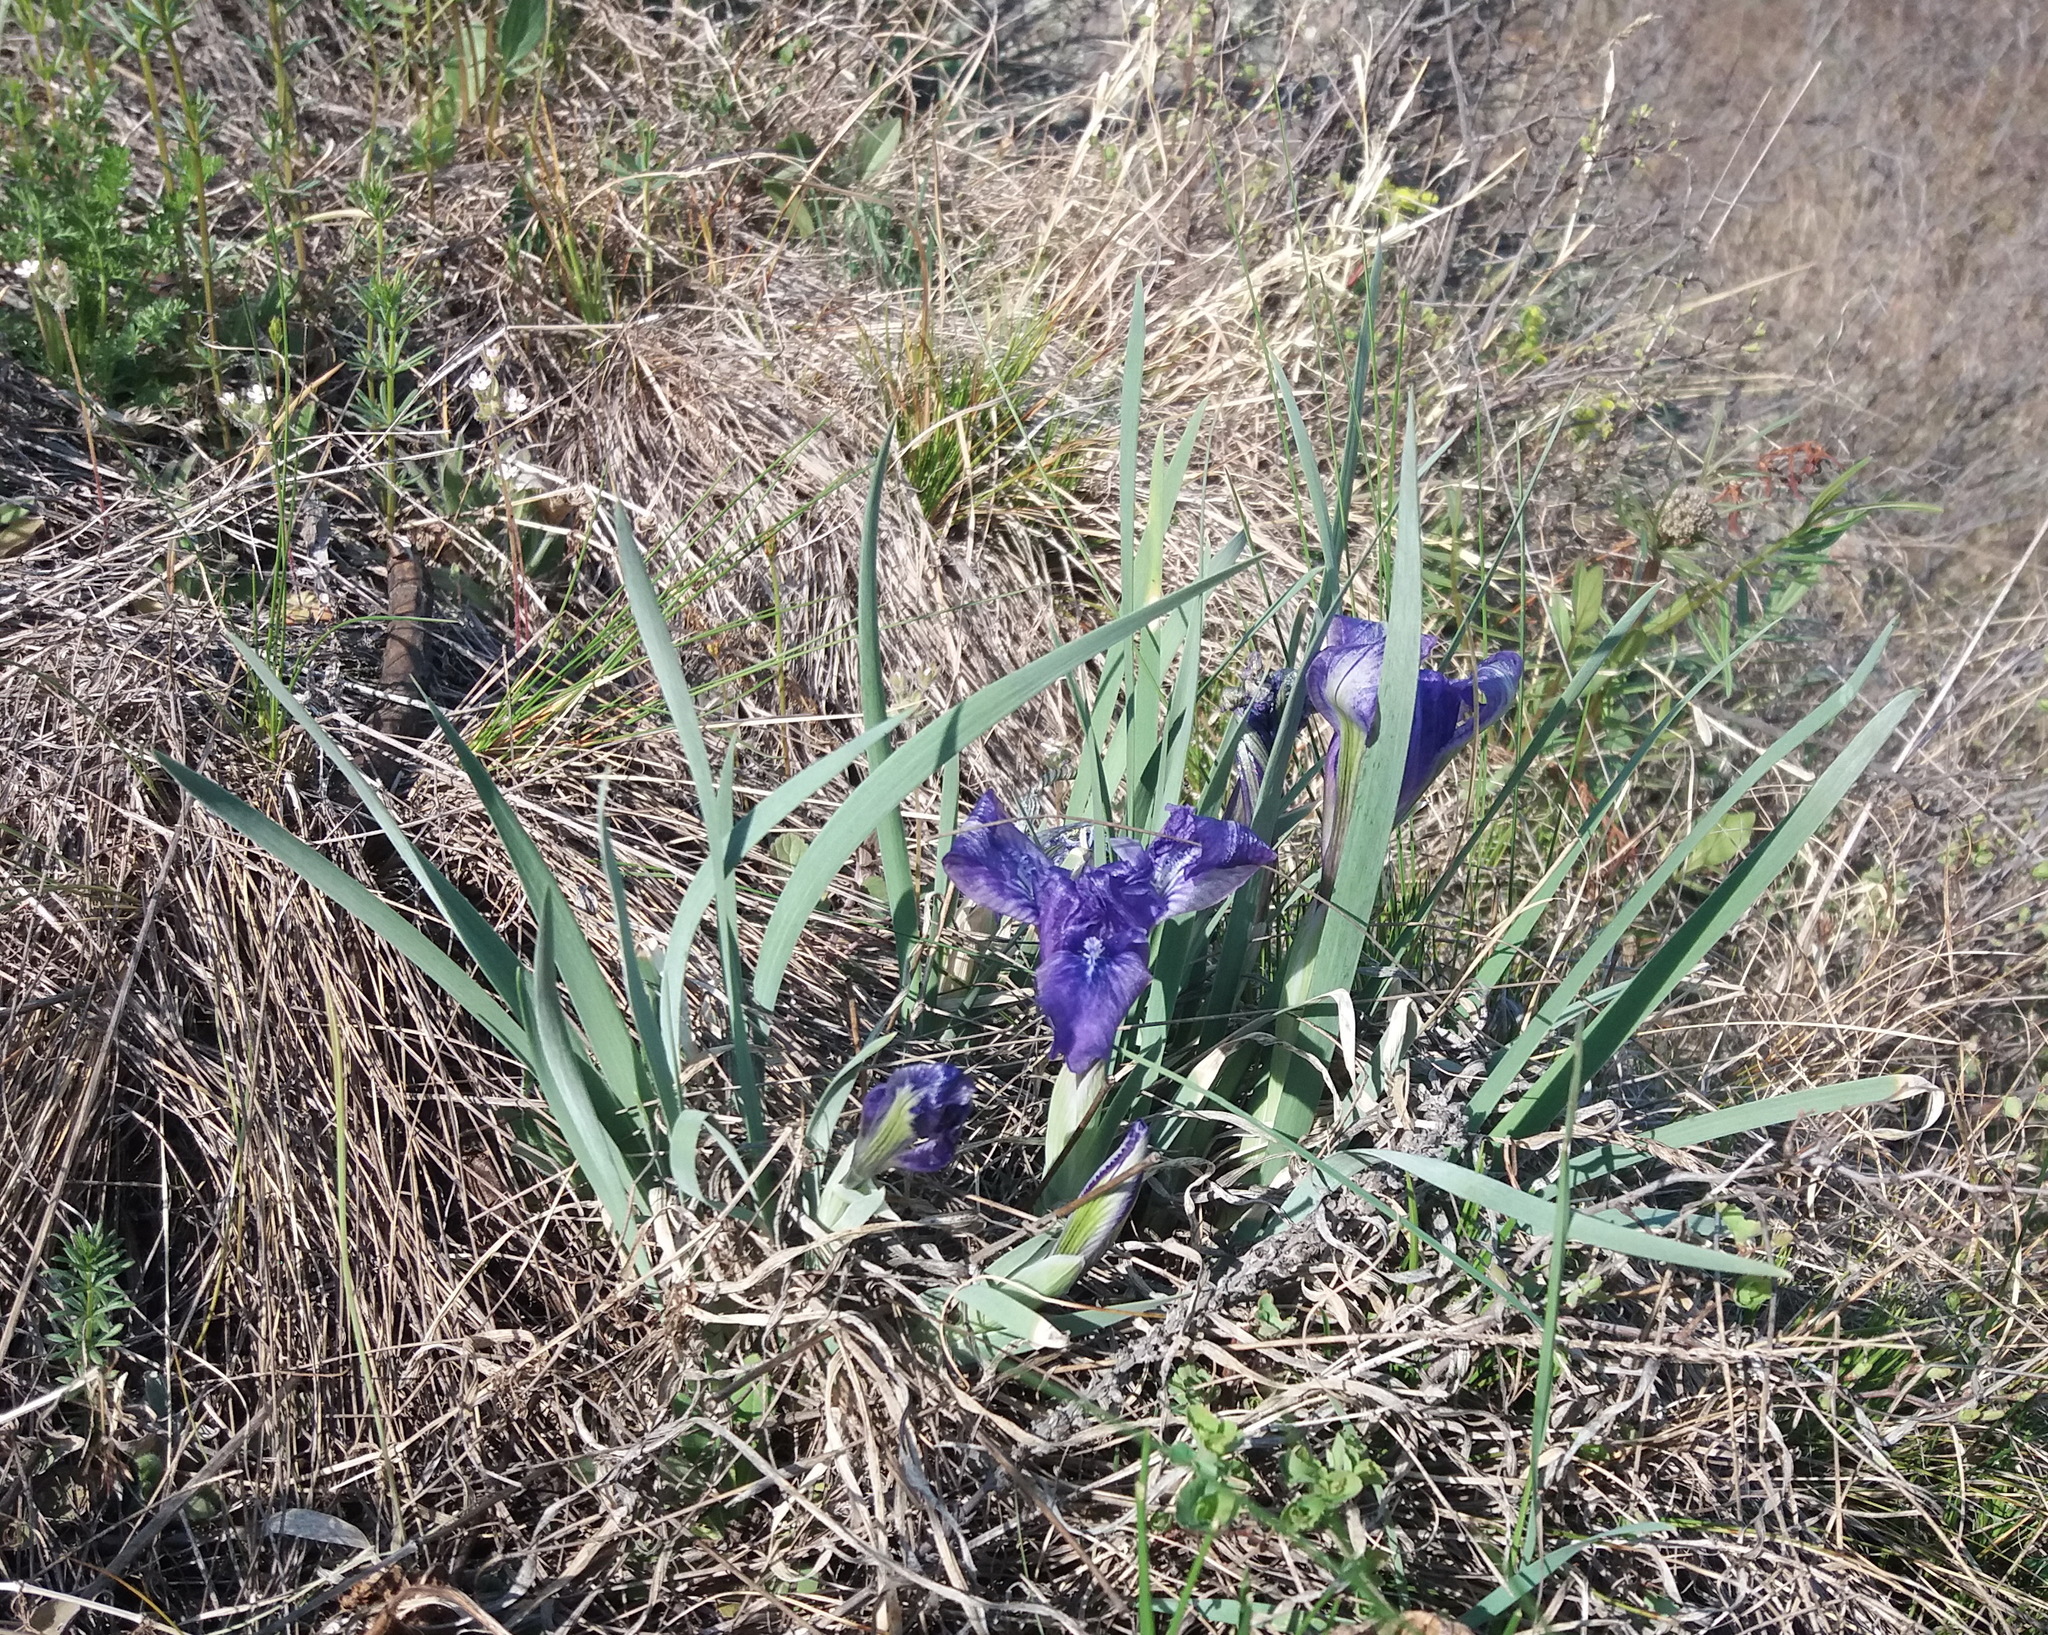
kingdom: Plantae
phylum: Tracheophyta
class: Liliopsida
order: Asparagales
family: Iridaceae
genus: Iris
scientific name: Iris tigridia
